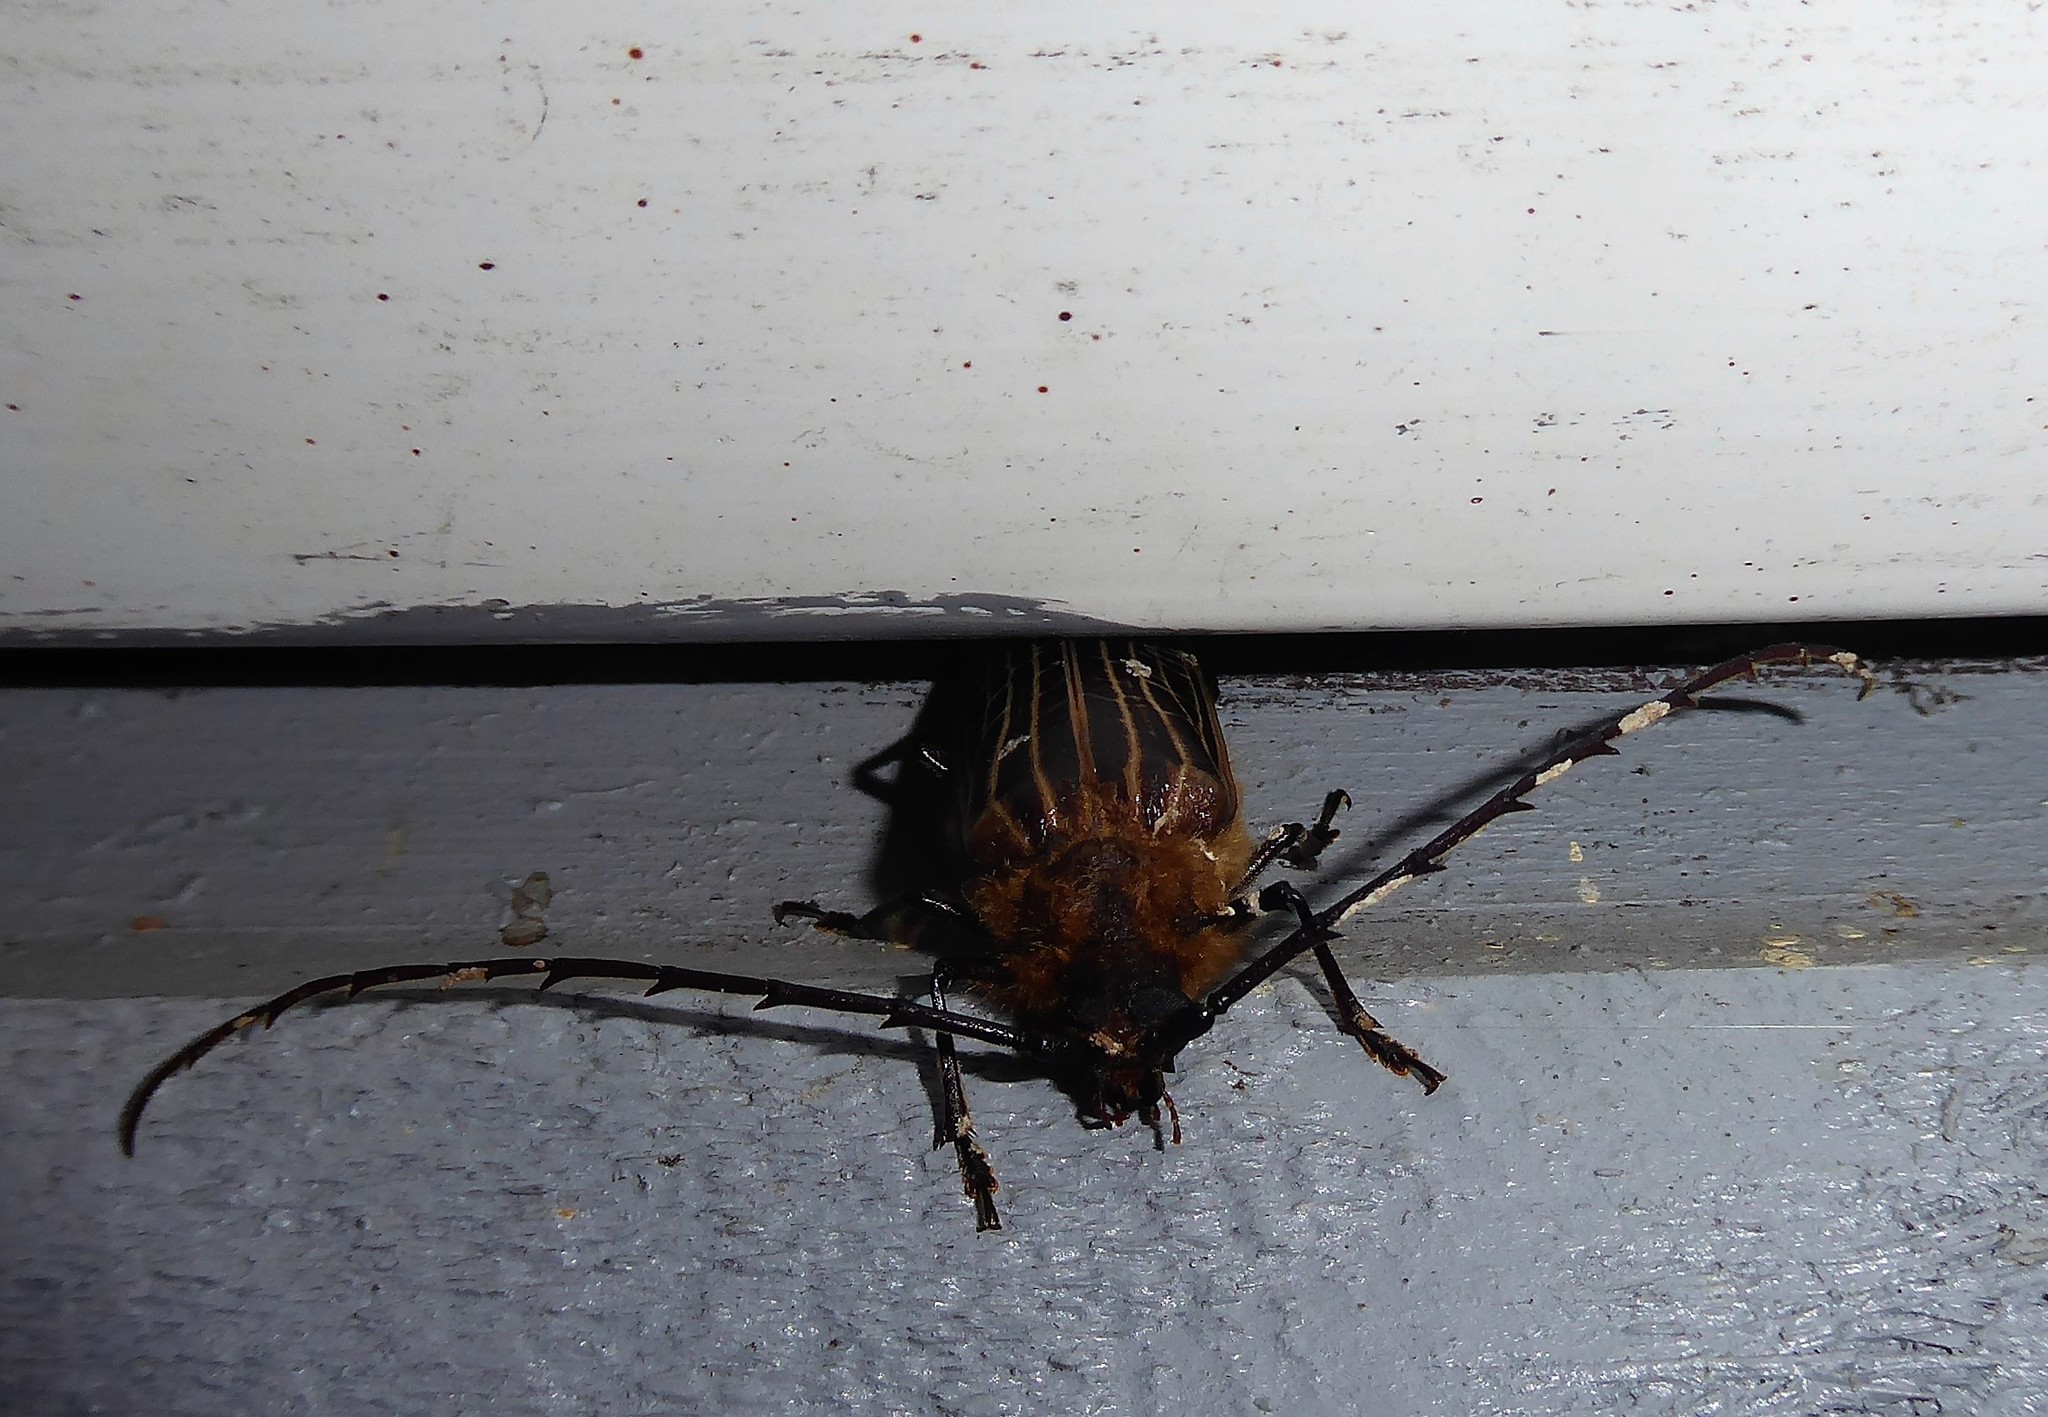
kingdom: Animalia
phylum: Arthropoda
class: Insecta
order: Coleoptera
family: Cerambycidae
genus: Prionoplus
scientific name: Prionoplus reticularis
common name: Huhu beetle
